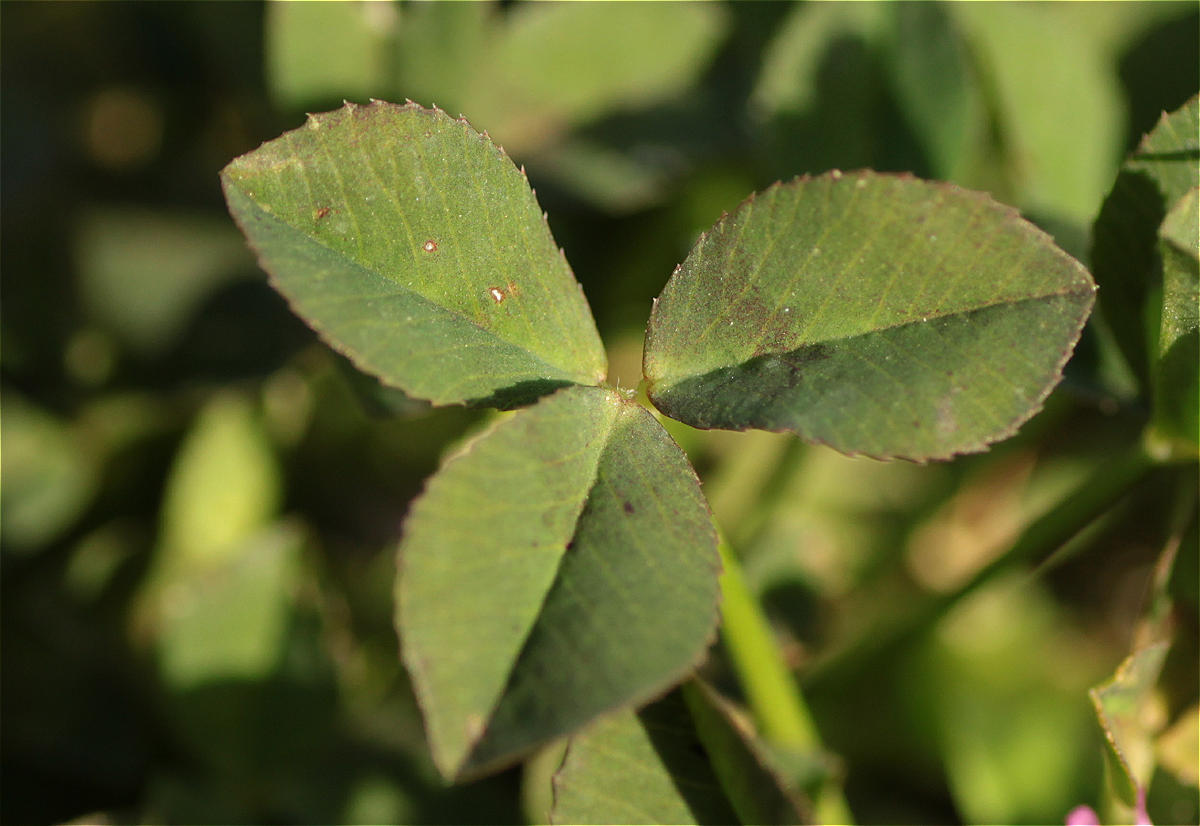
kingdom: Plantae
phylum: Tracheophyta
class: Magnoliopsida
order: Fabales
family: Fabaceae
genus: Trifolium
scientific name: Trifolium resupinatum
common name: Reversed clover
